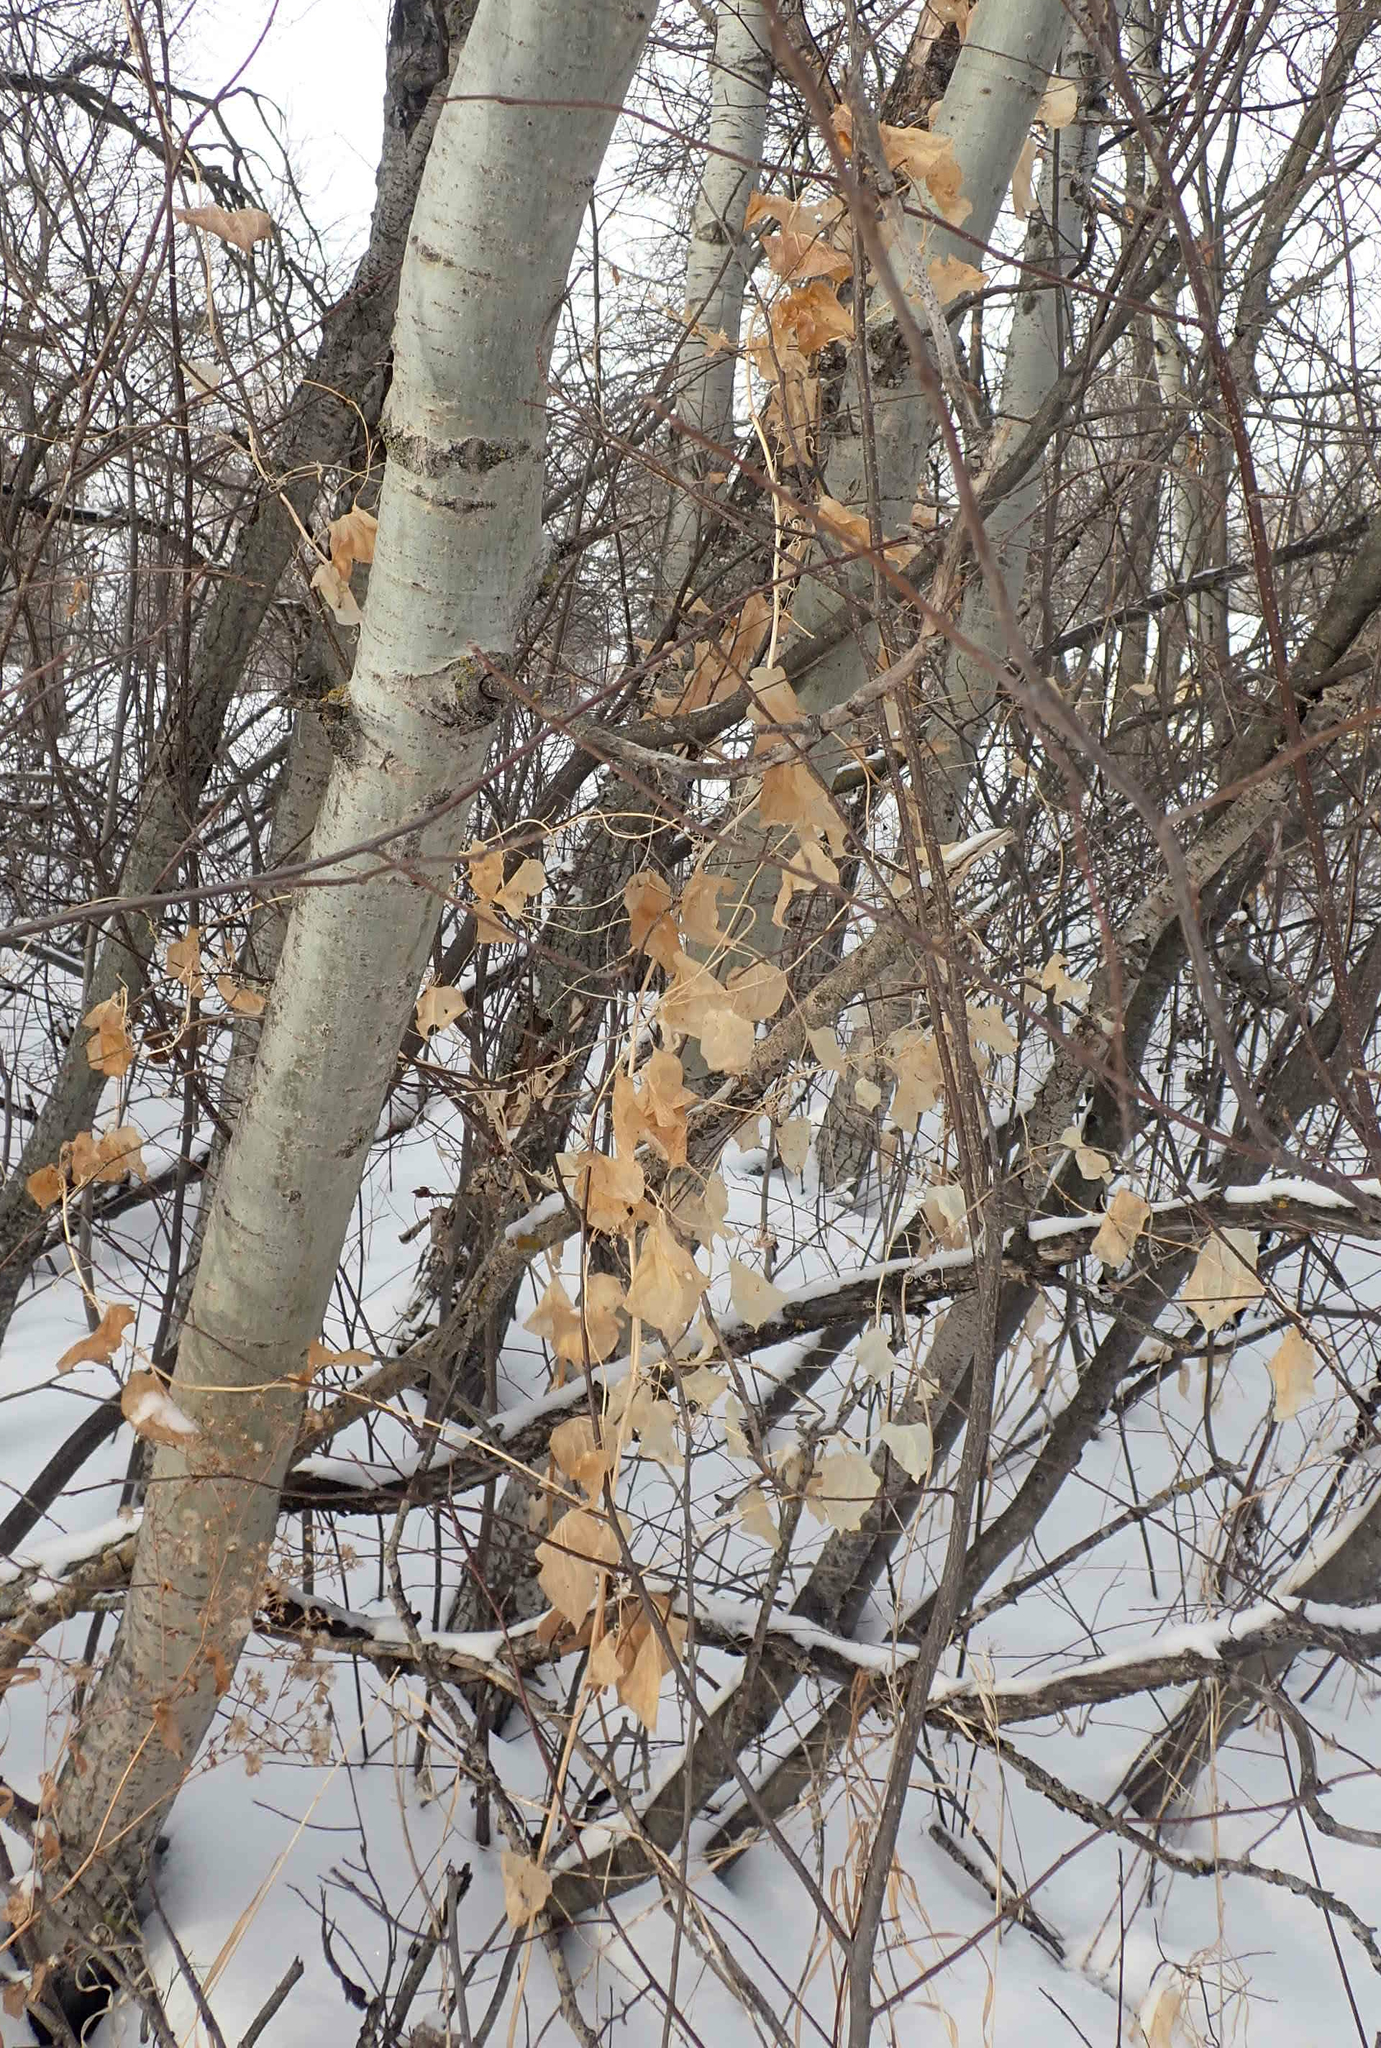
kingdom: Plantae
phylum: Tracheophyta
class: Liliopsida
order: Liliales
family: Smilacaceae
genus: Smilax
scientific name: Smilax lasioneura
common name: Blue ridge carrionflower
